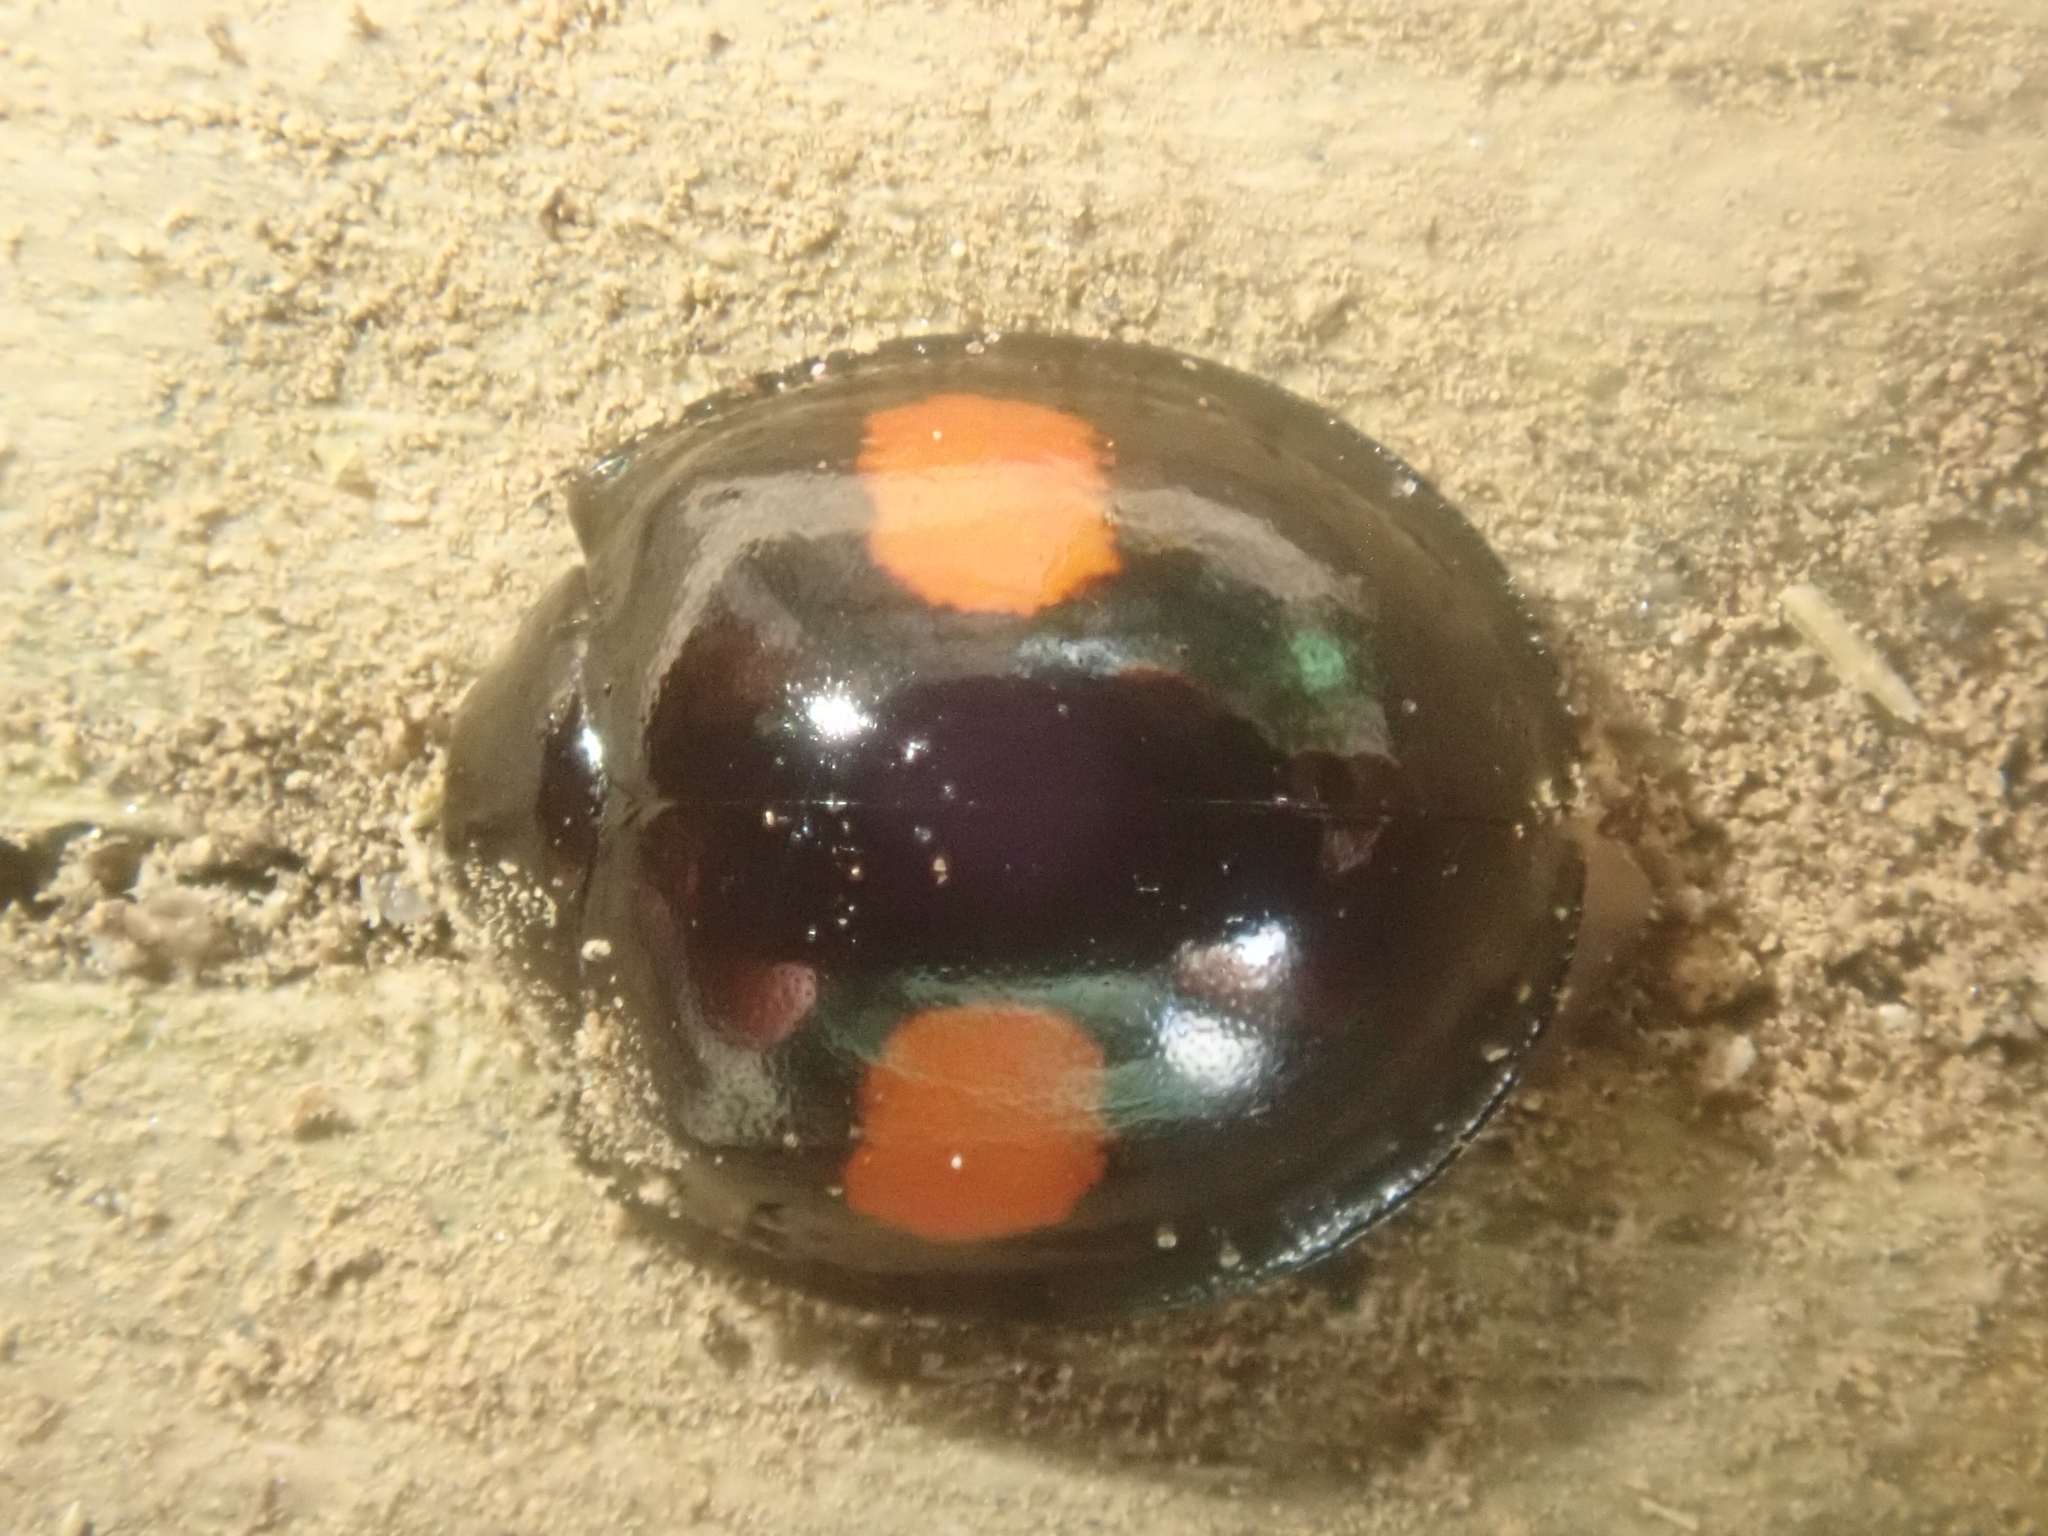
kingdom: Animalia
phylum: Arthropoda
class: Insecta
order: Coleoptera
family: Coccinellidae
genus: Chilocorus
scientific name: Chilocorus renipustulatus
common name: Kidney-spot ladybird
